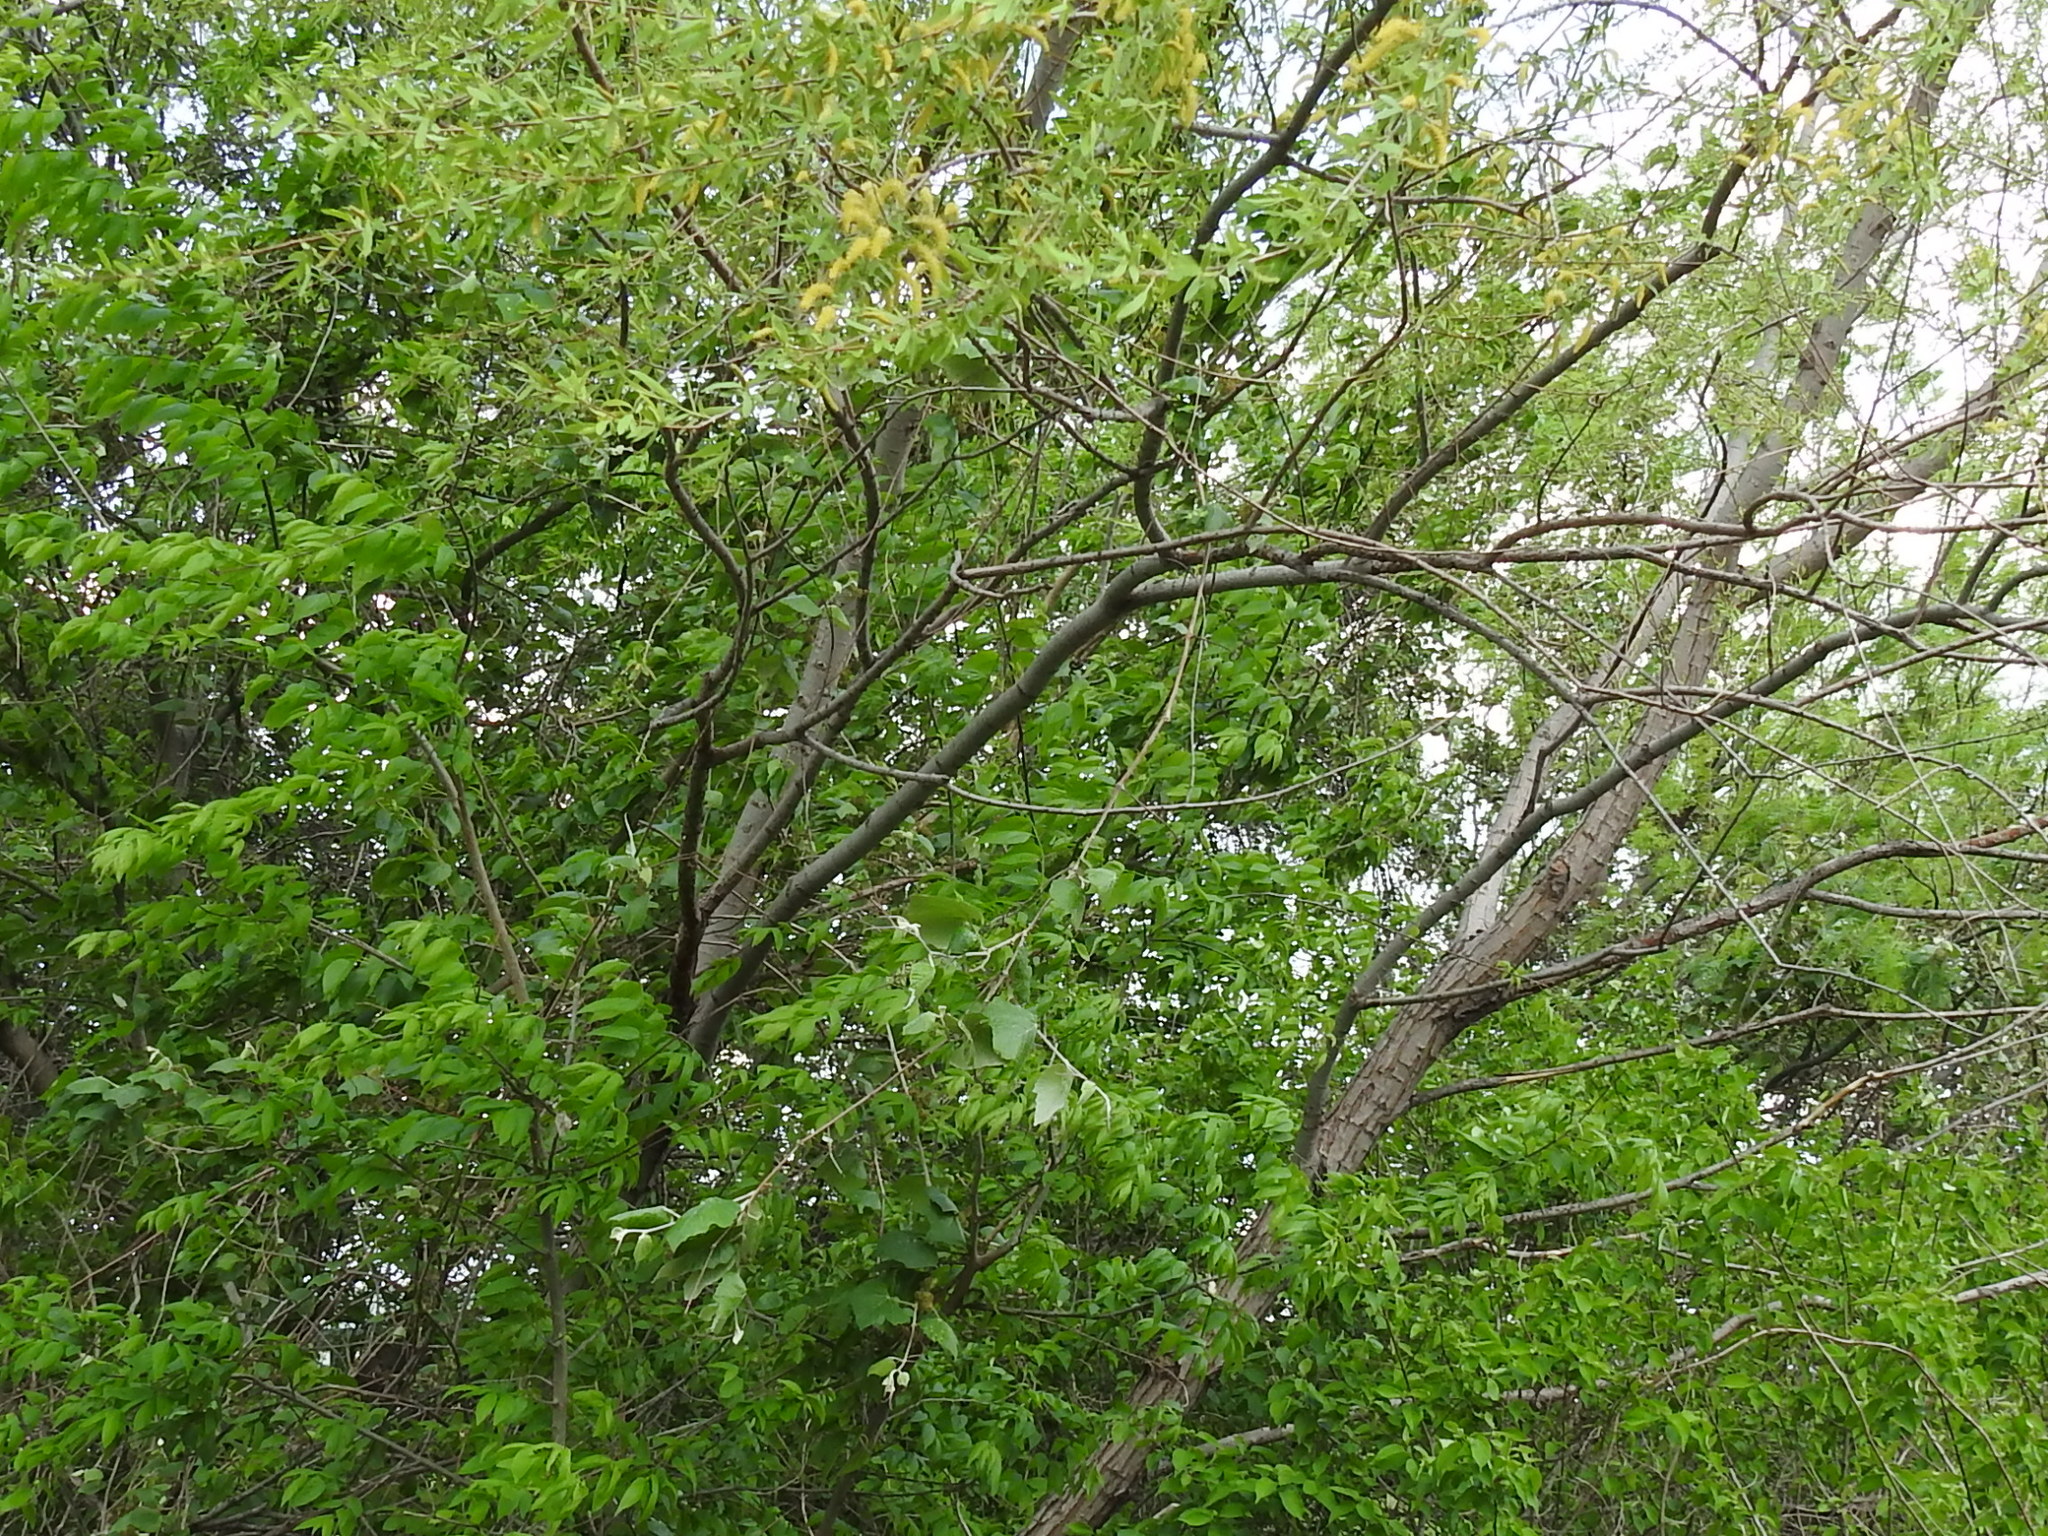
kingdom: Plantae
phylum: Tracheophyta
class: Magnoliopsida
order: Vitales
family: Vitaceae
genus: Vitis
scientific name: Vitis mustangensis
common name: Mustang grape
